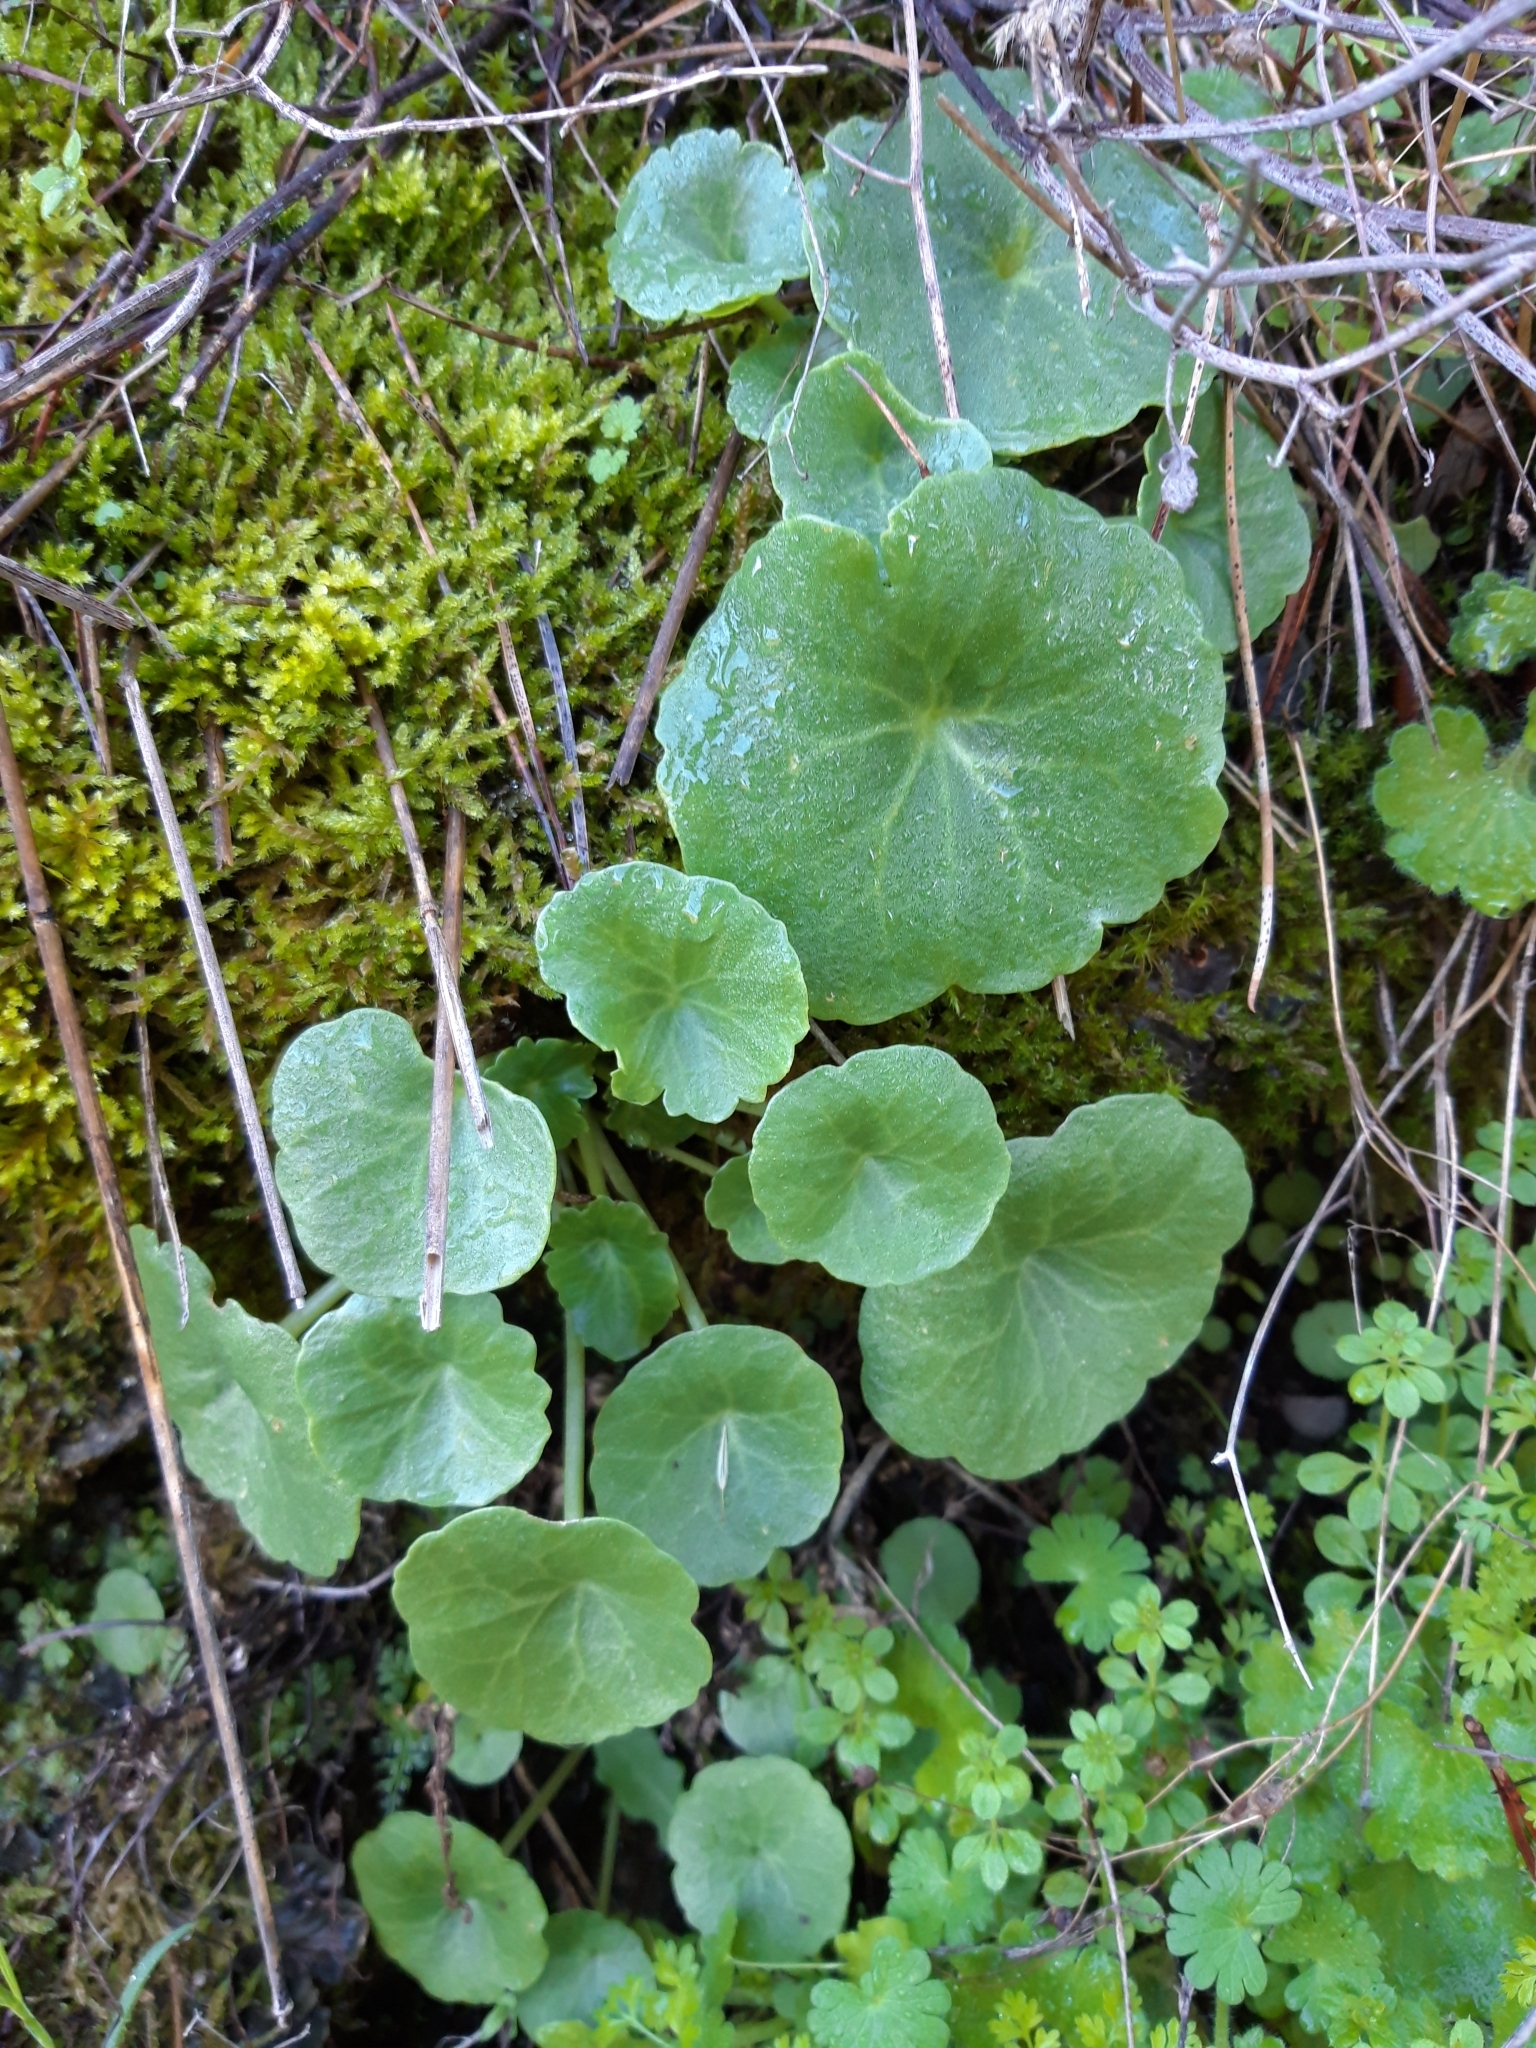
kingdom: Plantae
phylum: Tracheophyta
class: Magnoliopsida
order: Saxifragales
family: Crassulaceae
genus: Umbilicus
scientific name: Umbilicus rupestris
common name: Navelwort
